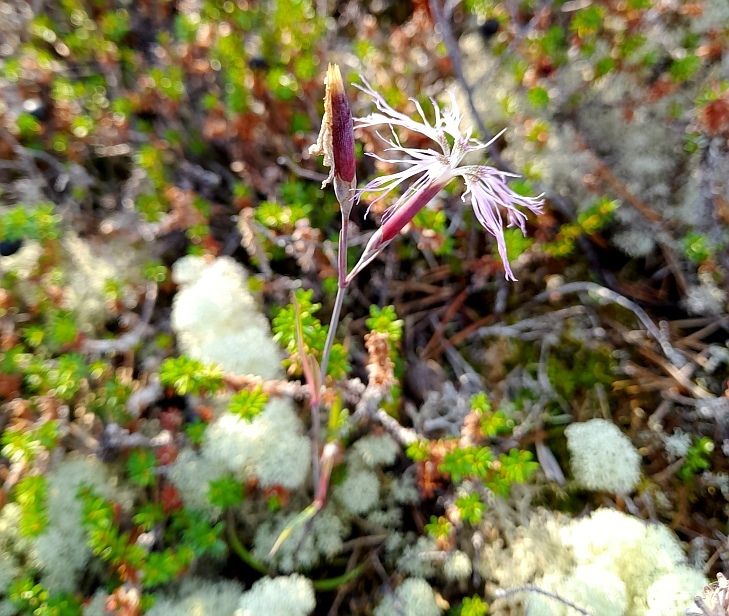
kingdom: Plantae
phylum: Tracheophyta
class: Magnoliopsida
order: Caryophyllales
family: Caryophyllaceae
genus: Dianthus
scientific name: Dianthus superbus
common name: Fringed pink
